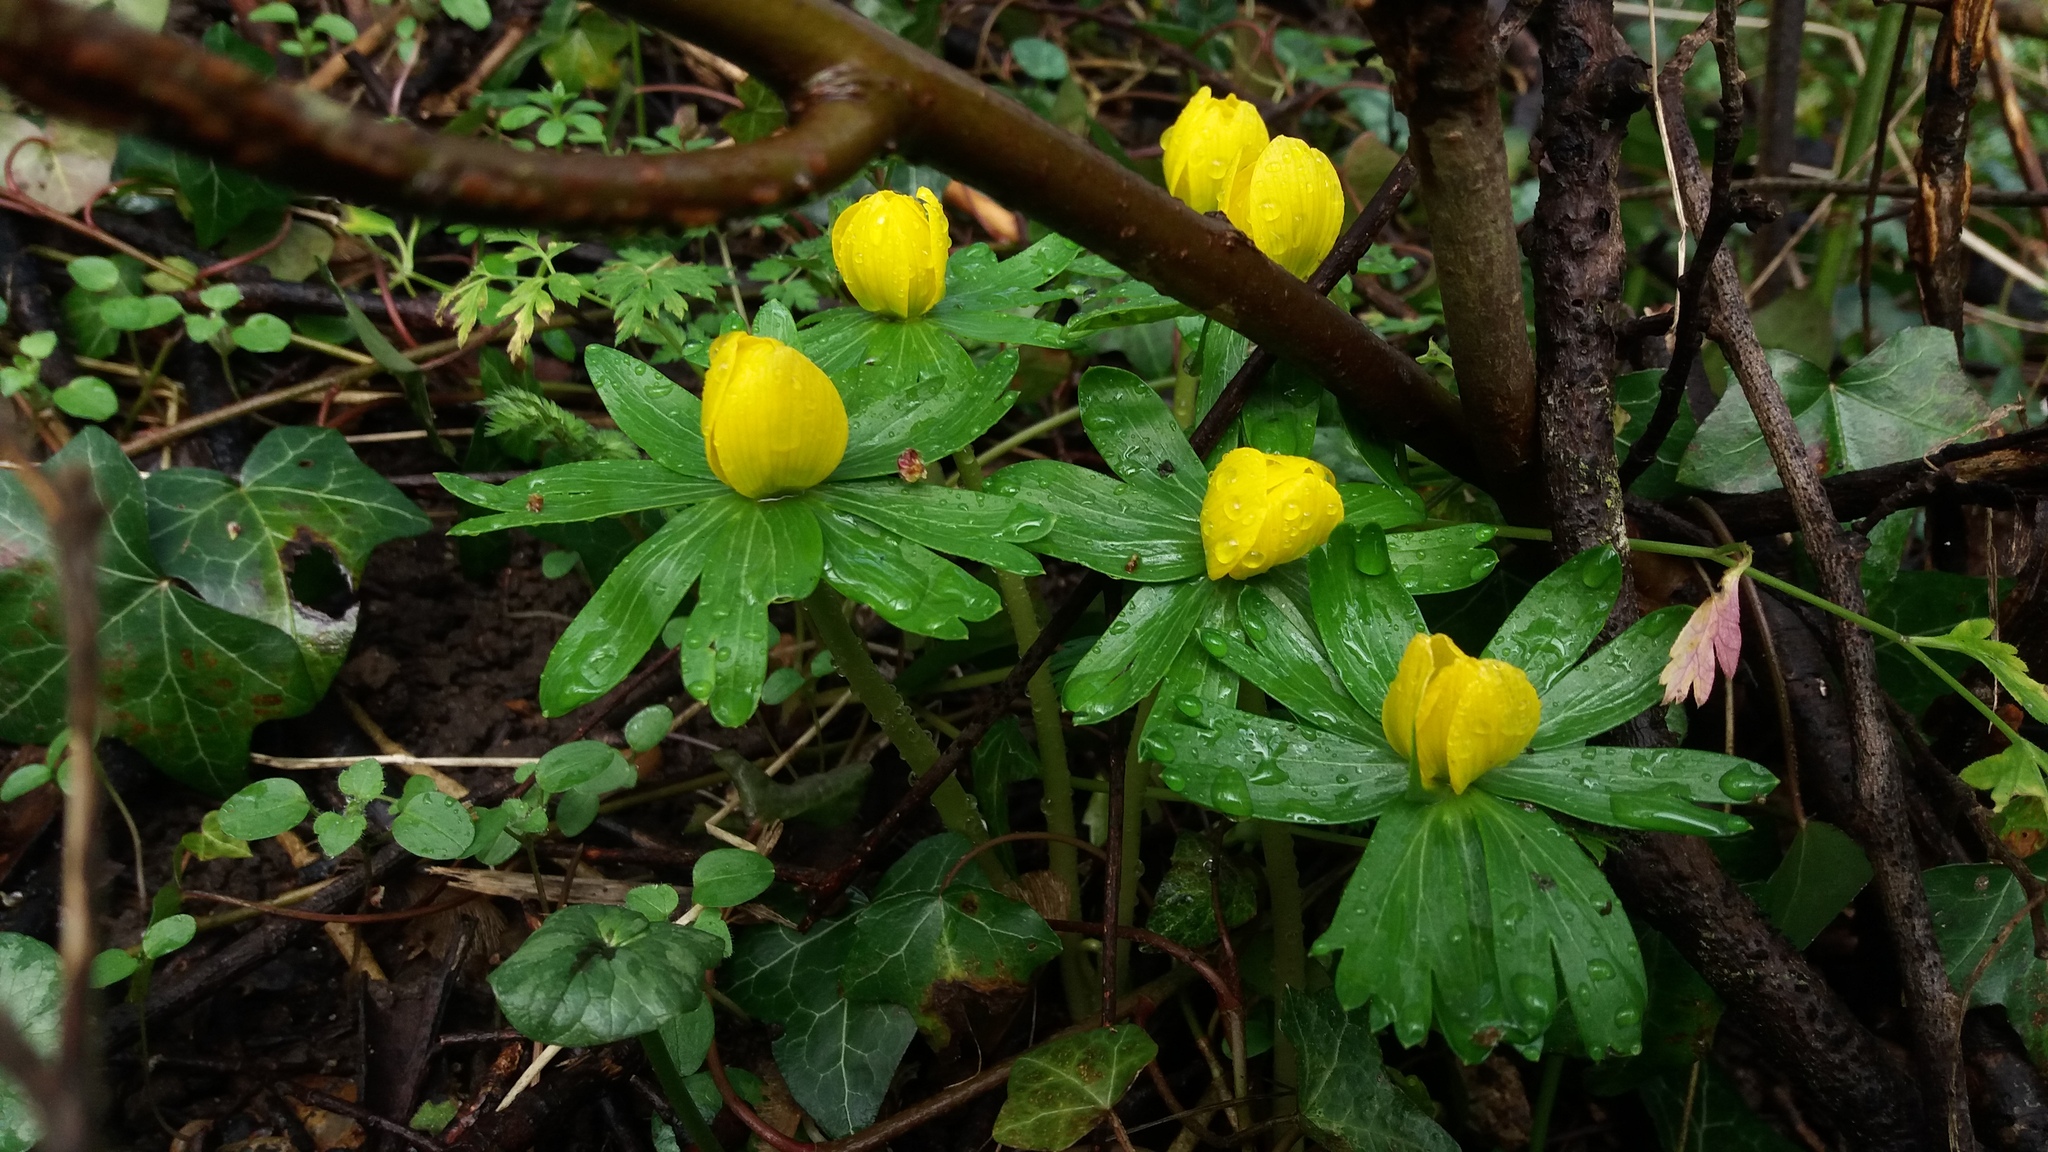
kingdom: Plantae
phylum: Tracheophyta
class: Magnoliopsida
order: Ranunculales
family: Ranunculaceae
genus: Eranthis
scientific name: Eranthis hyemalis
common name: Winter aconite
